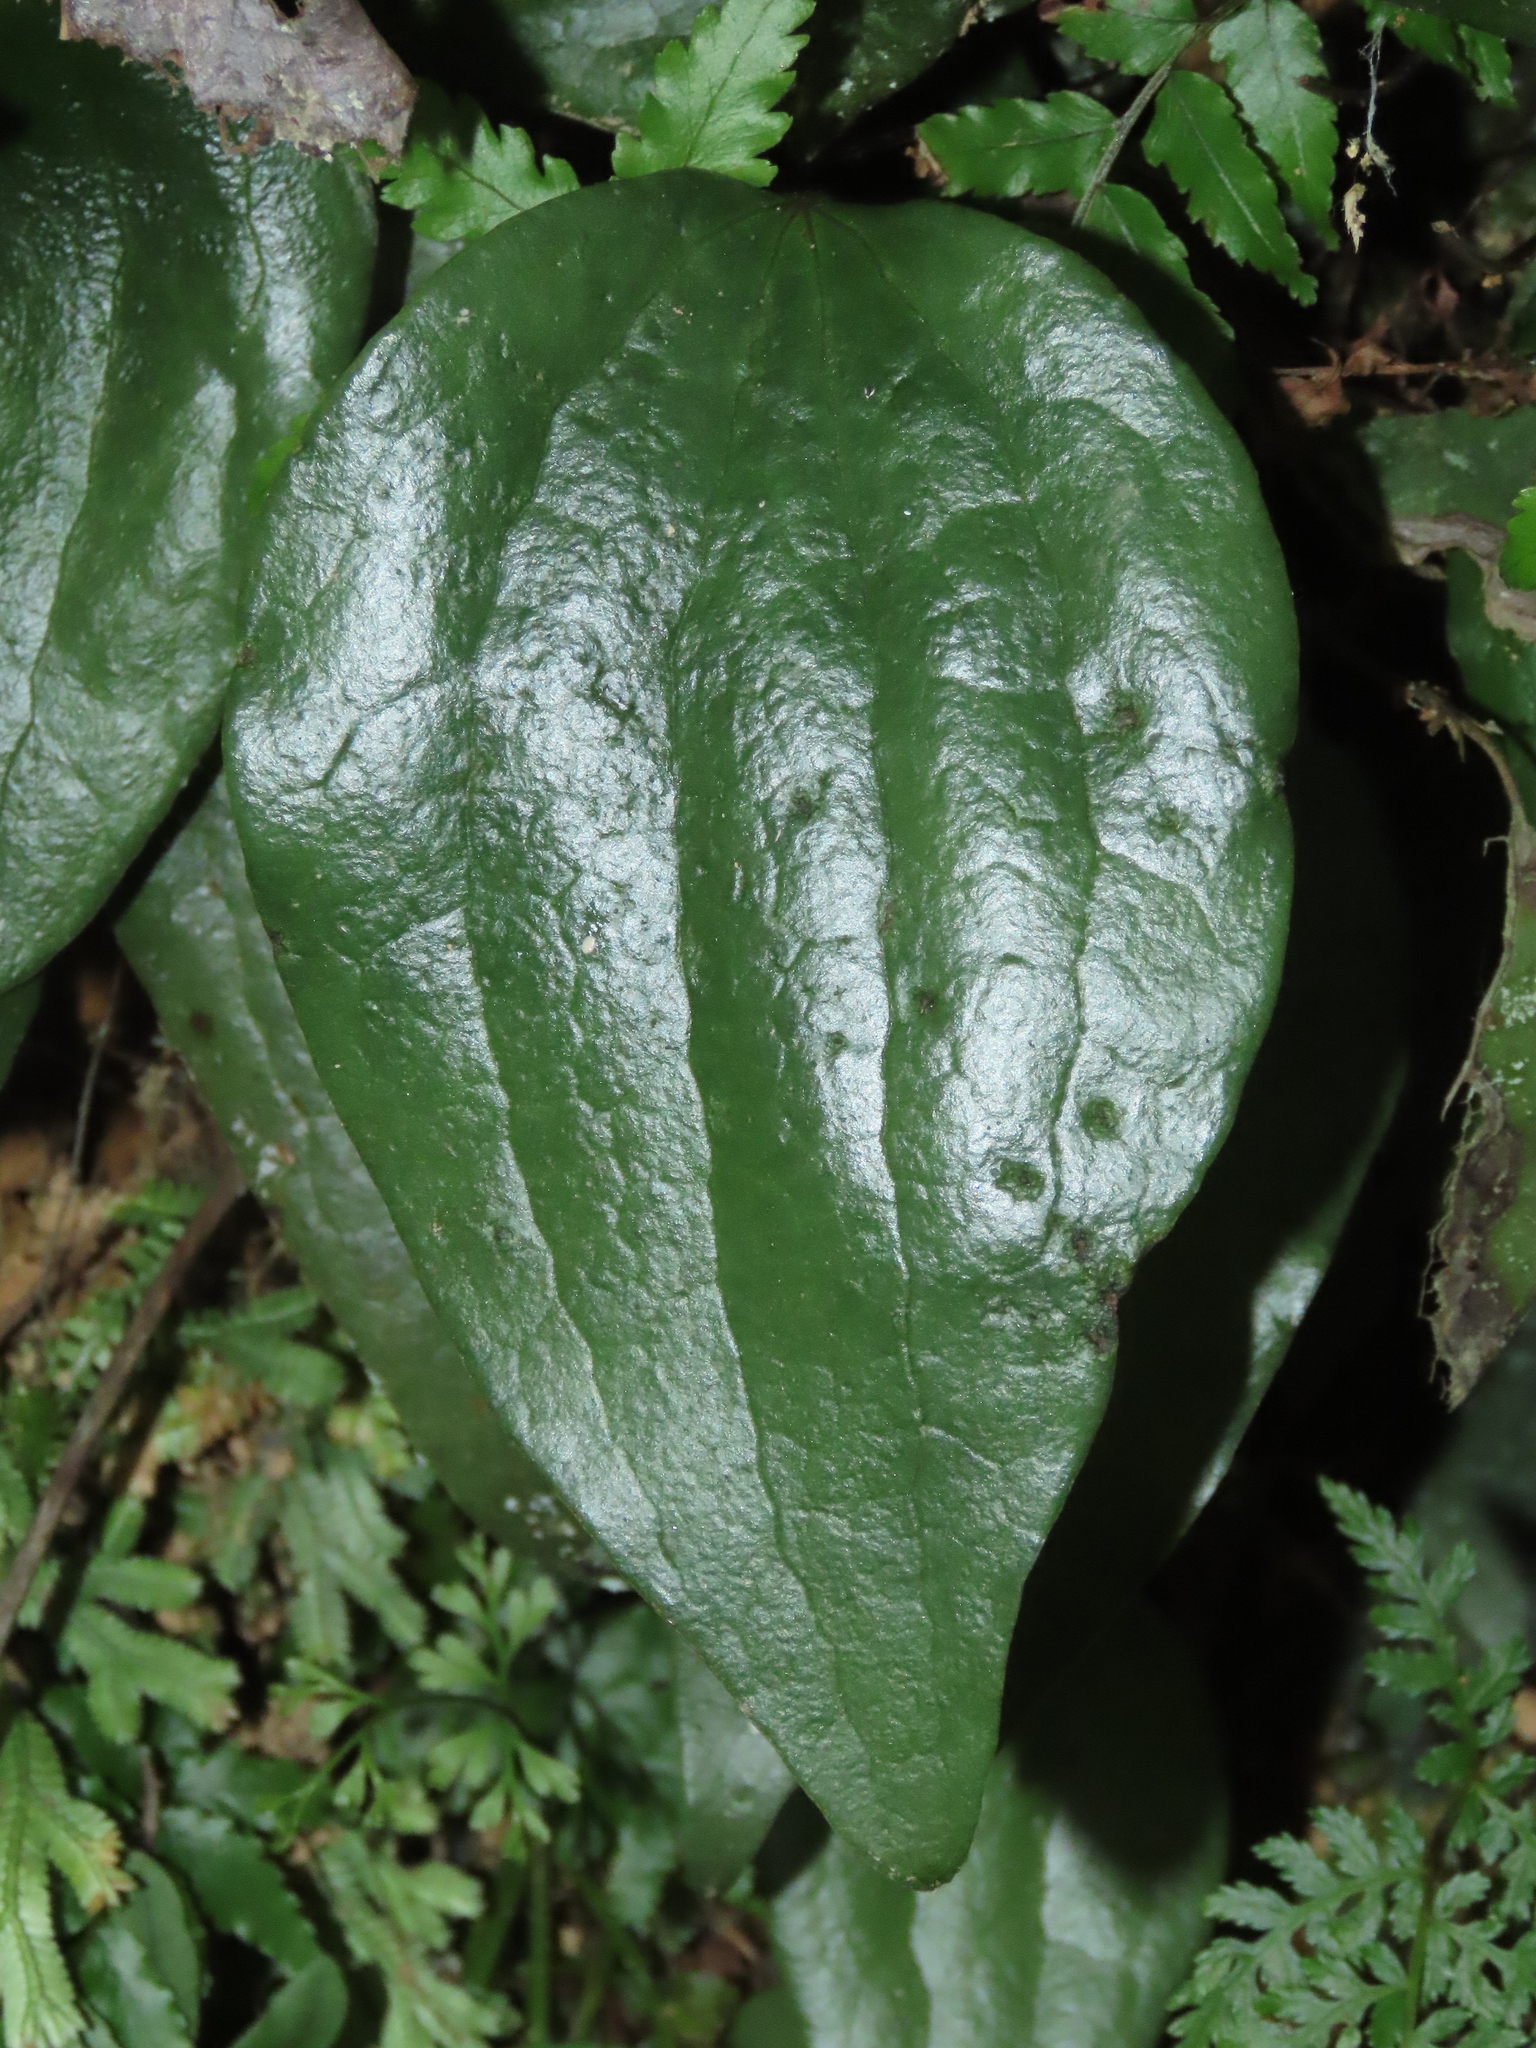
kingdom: Plantae
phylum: Tracheophyta
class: Polypodiopsida
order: Gleicheniales
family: Dipteridaceae
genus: Cheiropleuria
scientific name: Cheiropleuria integrifolia
